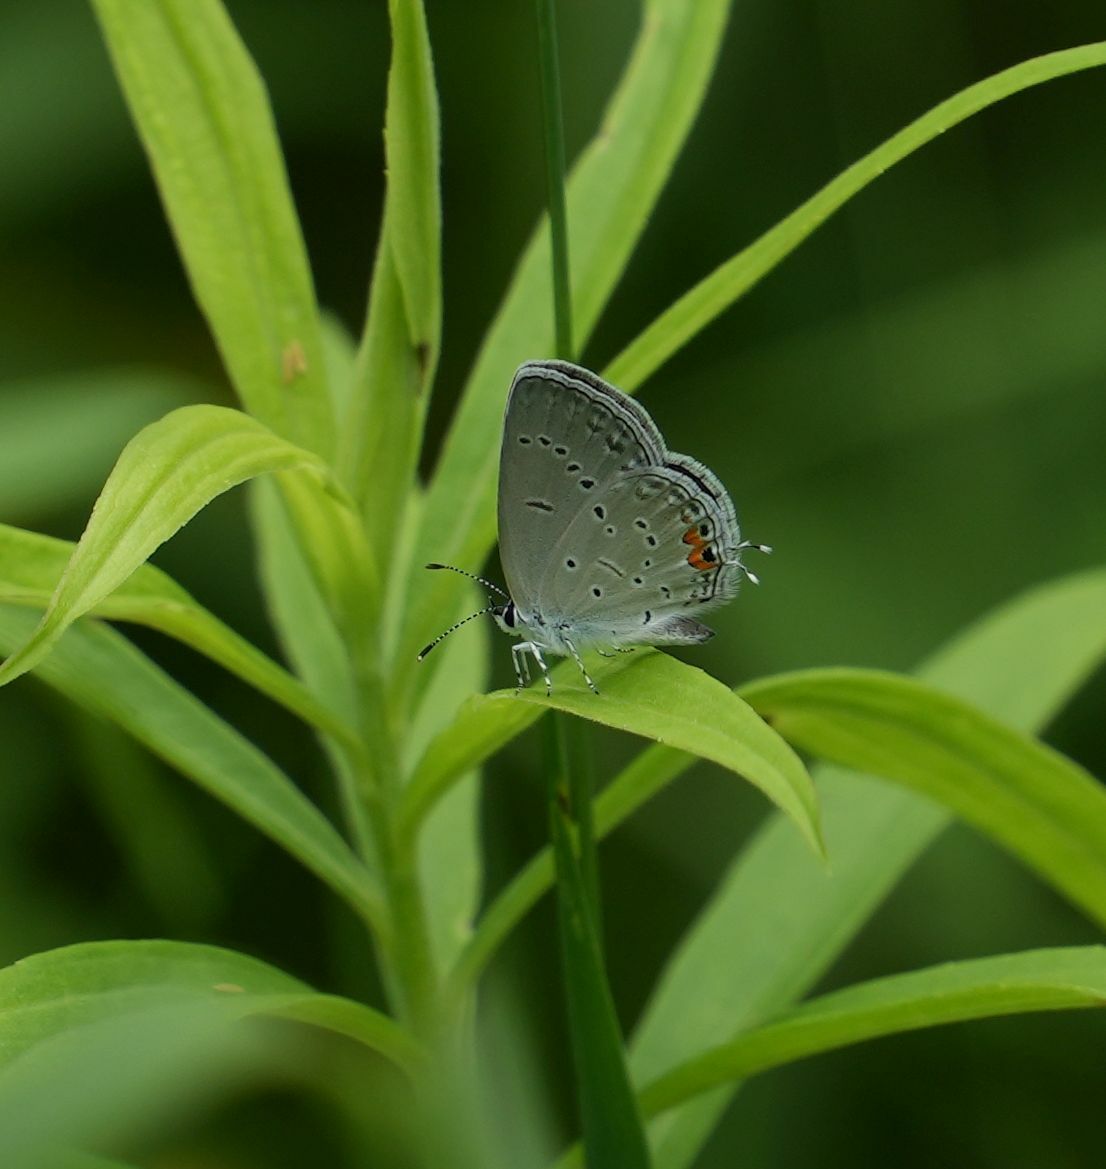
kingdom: Animalia
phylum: Arthropoda
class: Insecta
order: Lepidoptera
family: Lycaenidae
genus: Elkalyce
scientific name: Elkalyce comyntas
